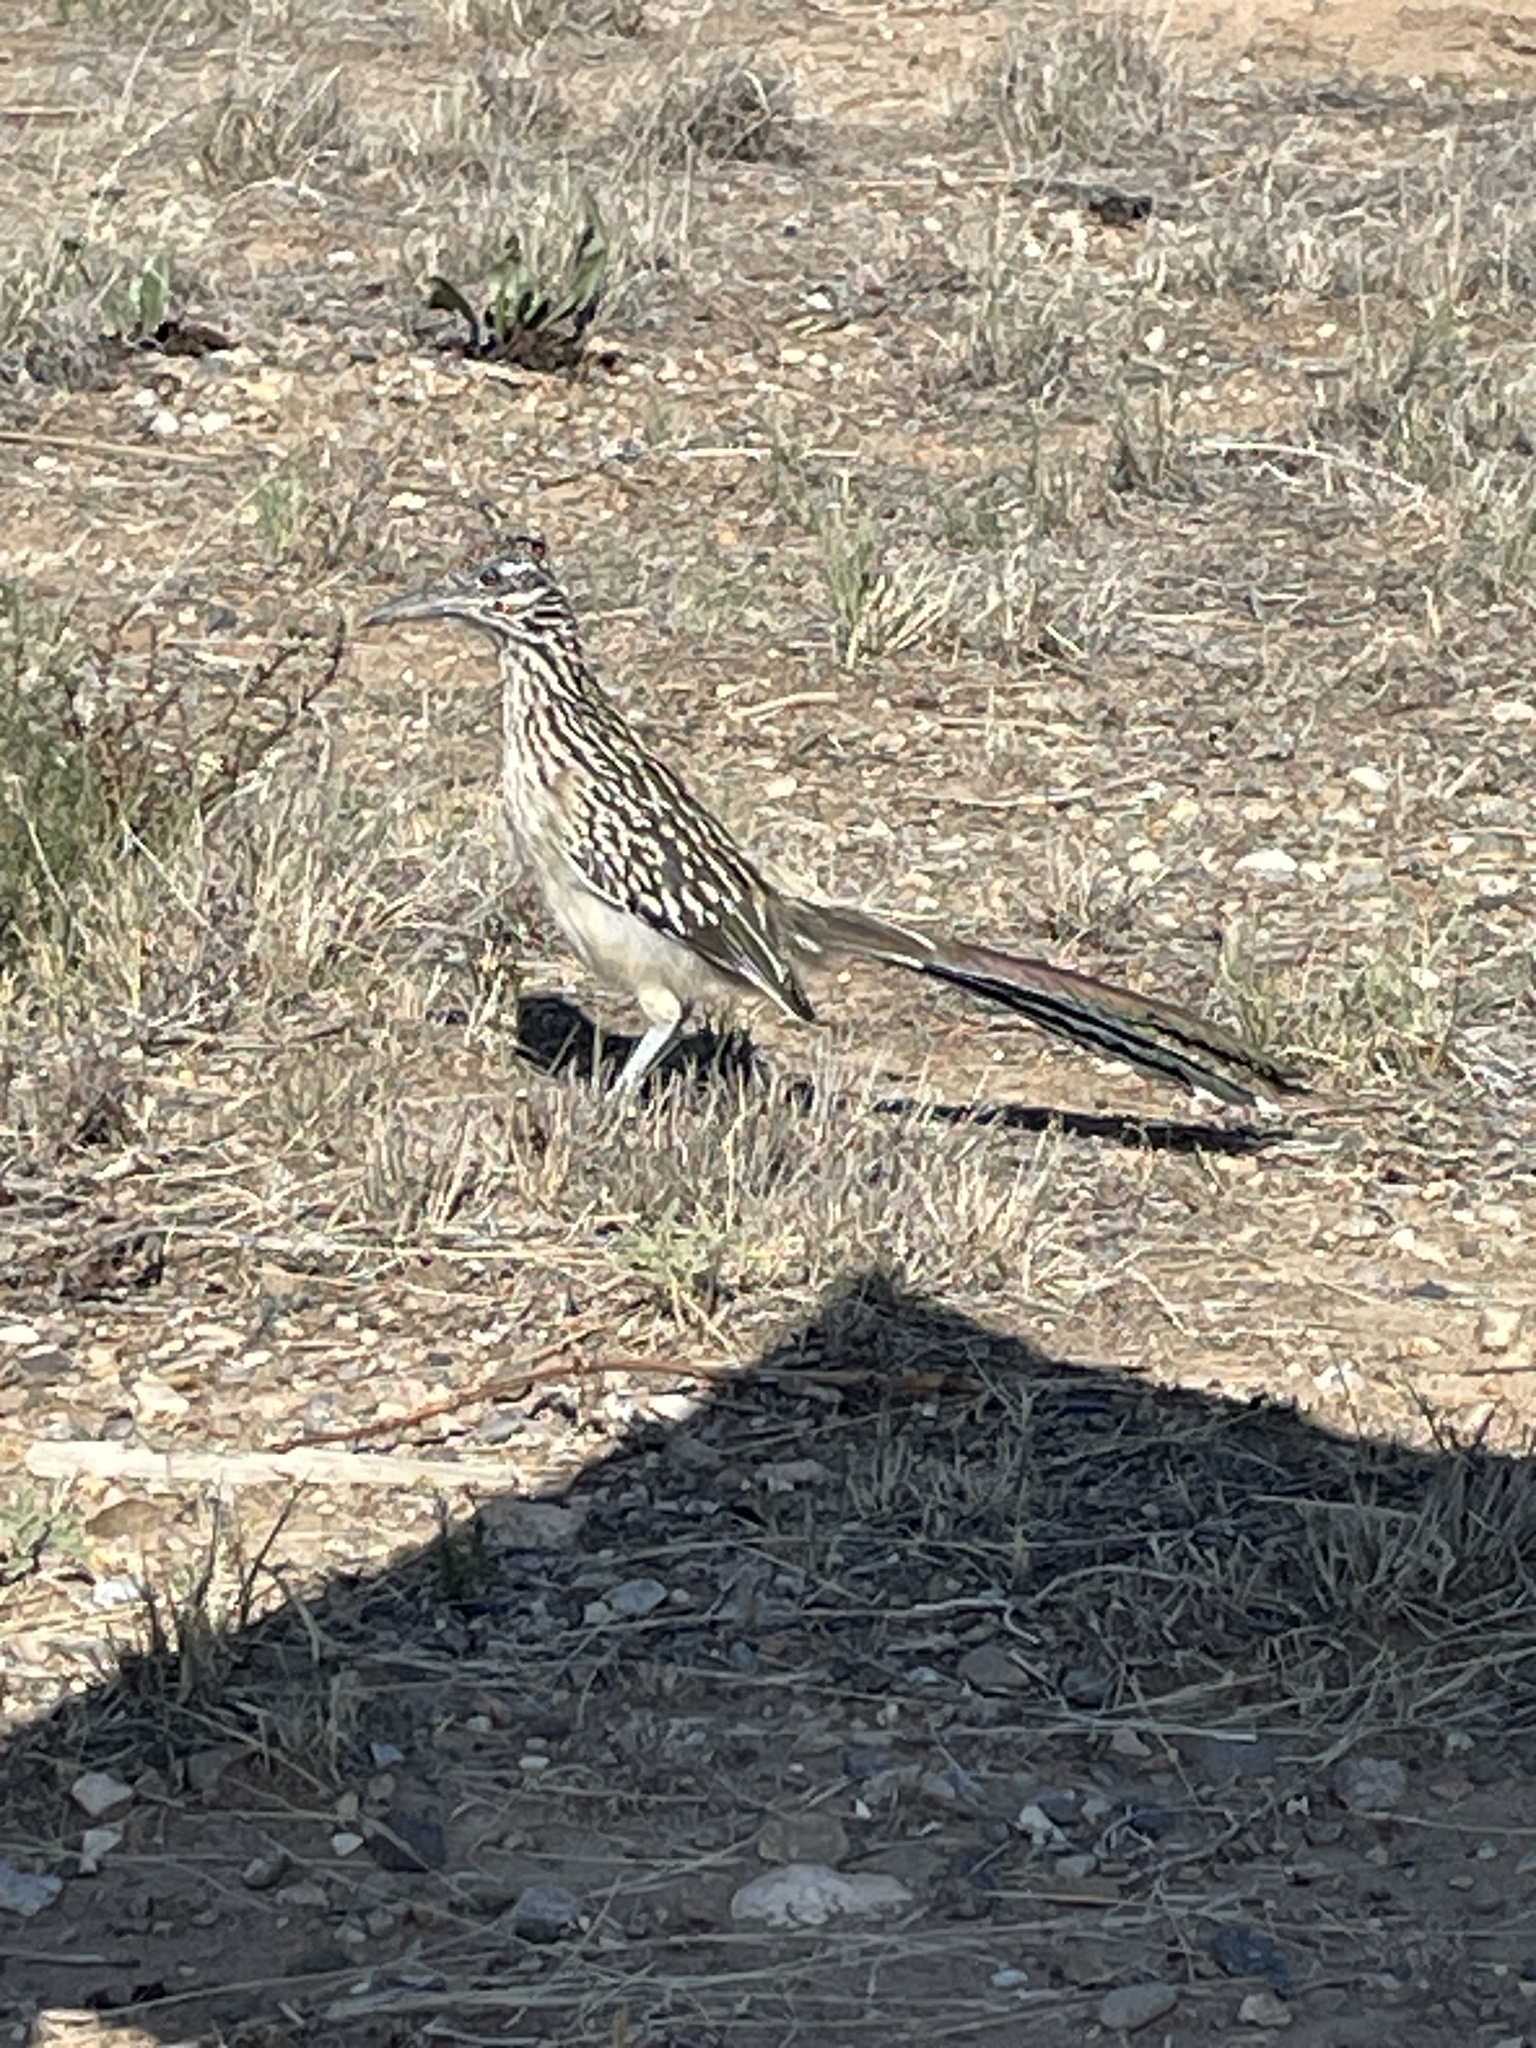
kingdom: Animalia
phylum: Chordata
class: Aves
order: Cuculiformes
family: Cuculidae
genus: Geococcyx
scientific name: Geococcyx californianus
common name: Greater roadrunner
